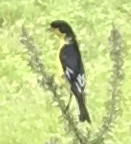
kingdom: Animalia
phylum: Chordata
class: Aves
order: Passeriformes
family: Fringillidae
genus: Spinus
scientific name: Spinus psaltria
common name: Lesser goldfinch
